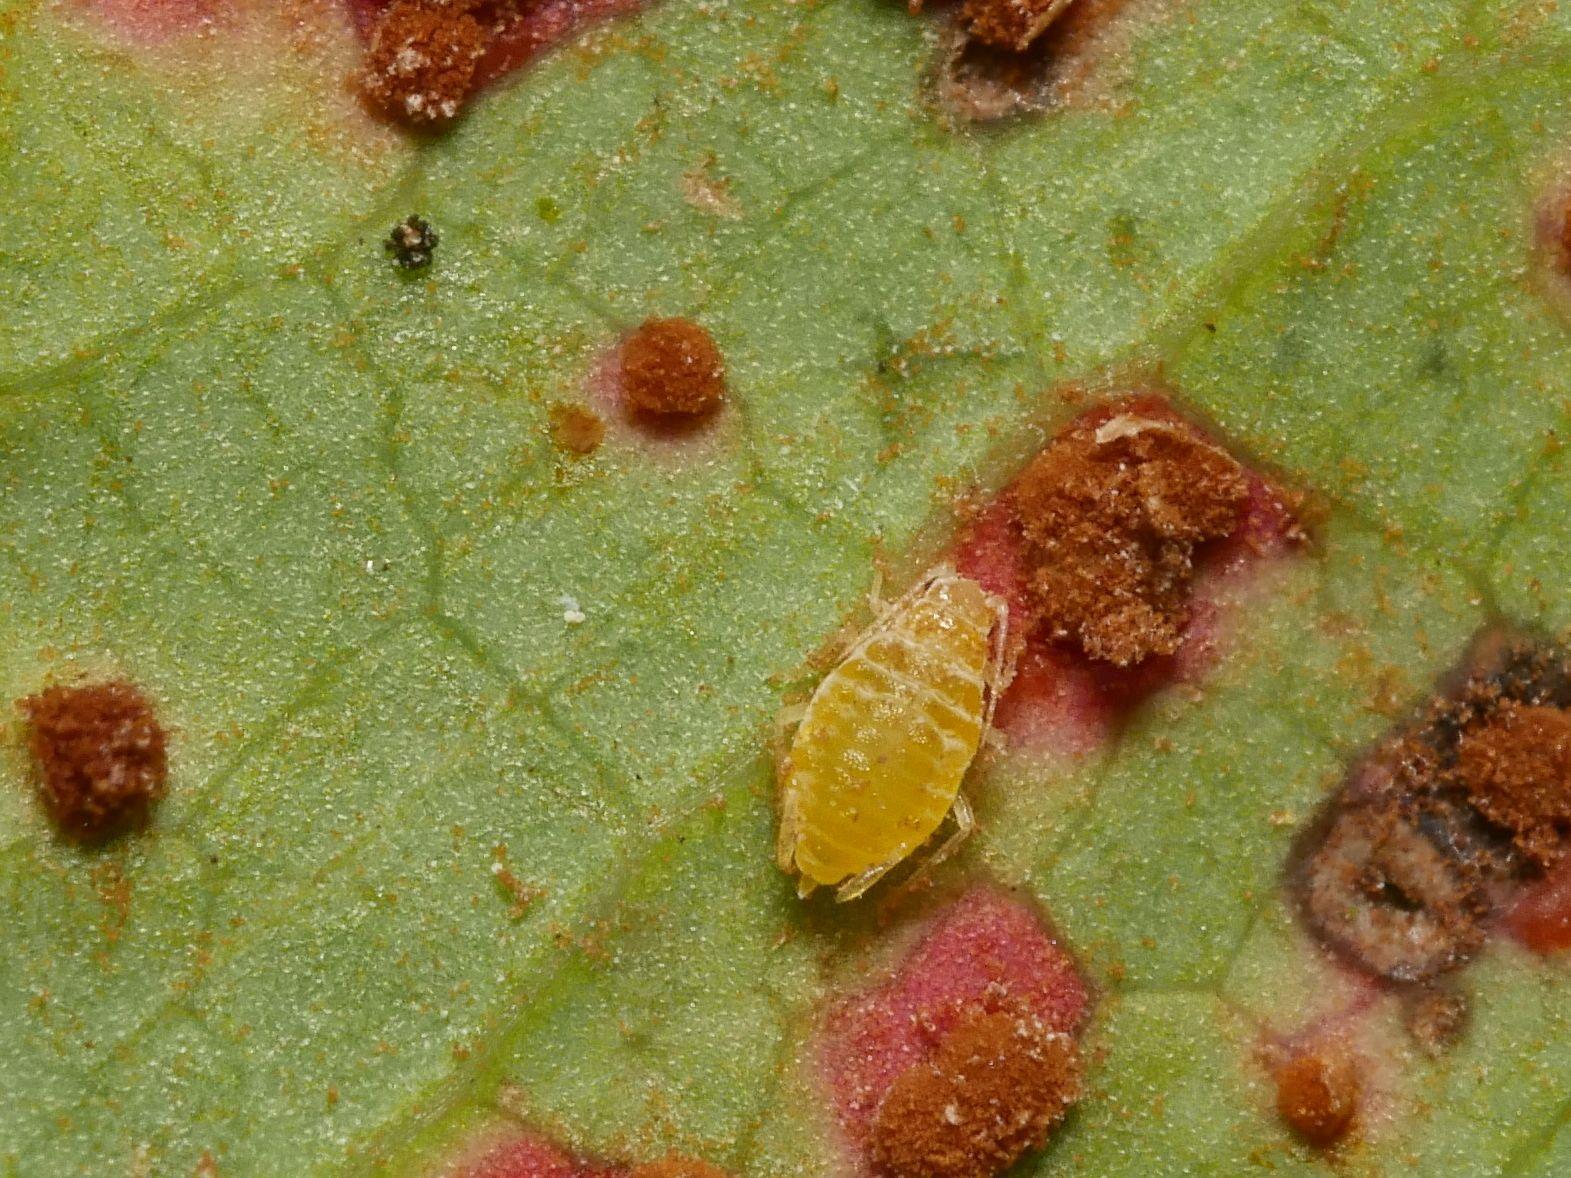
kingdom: Animalia
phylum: Arthropoda
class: Insecta
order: Hemiptera
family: Aphididae
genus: Liosomaphis
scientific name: Liosomaphis berberidis
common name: Barberry aphid
